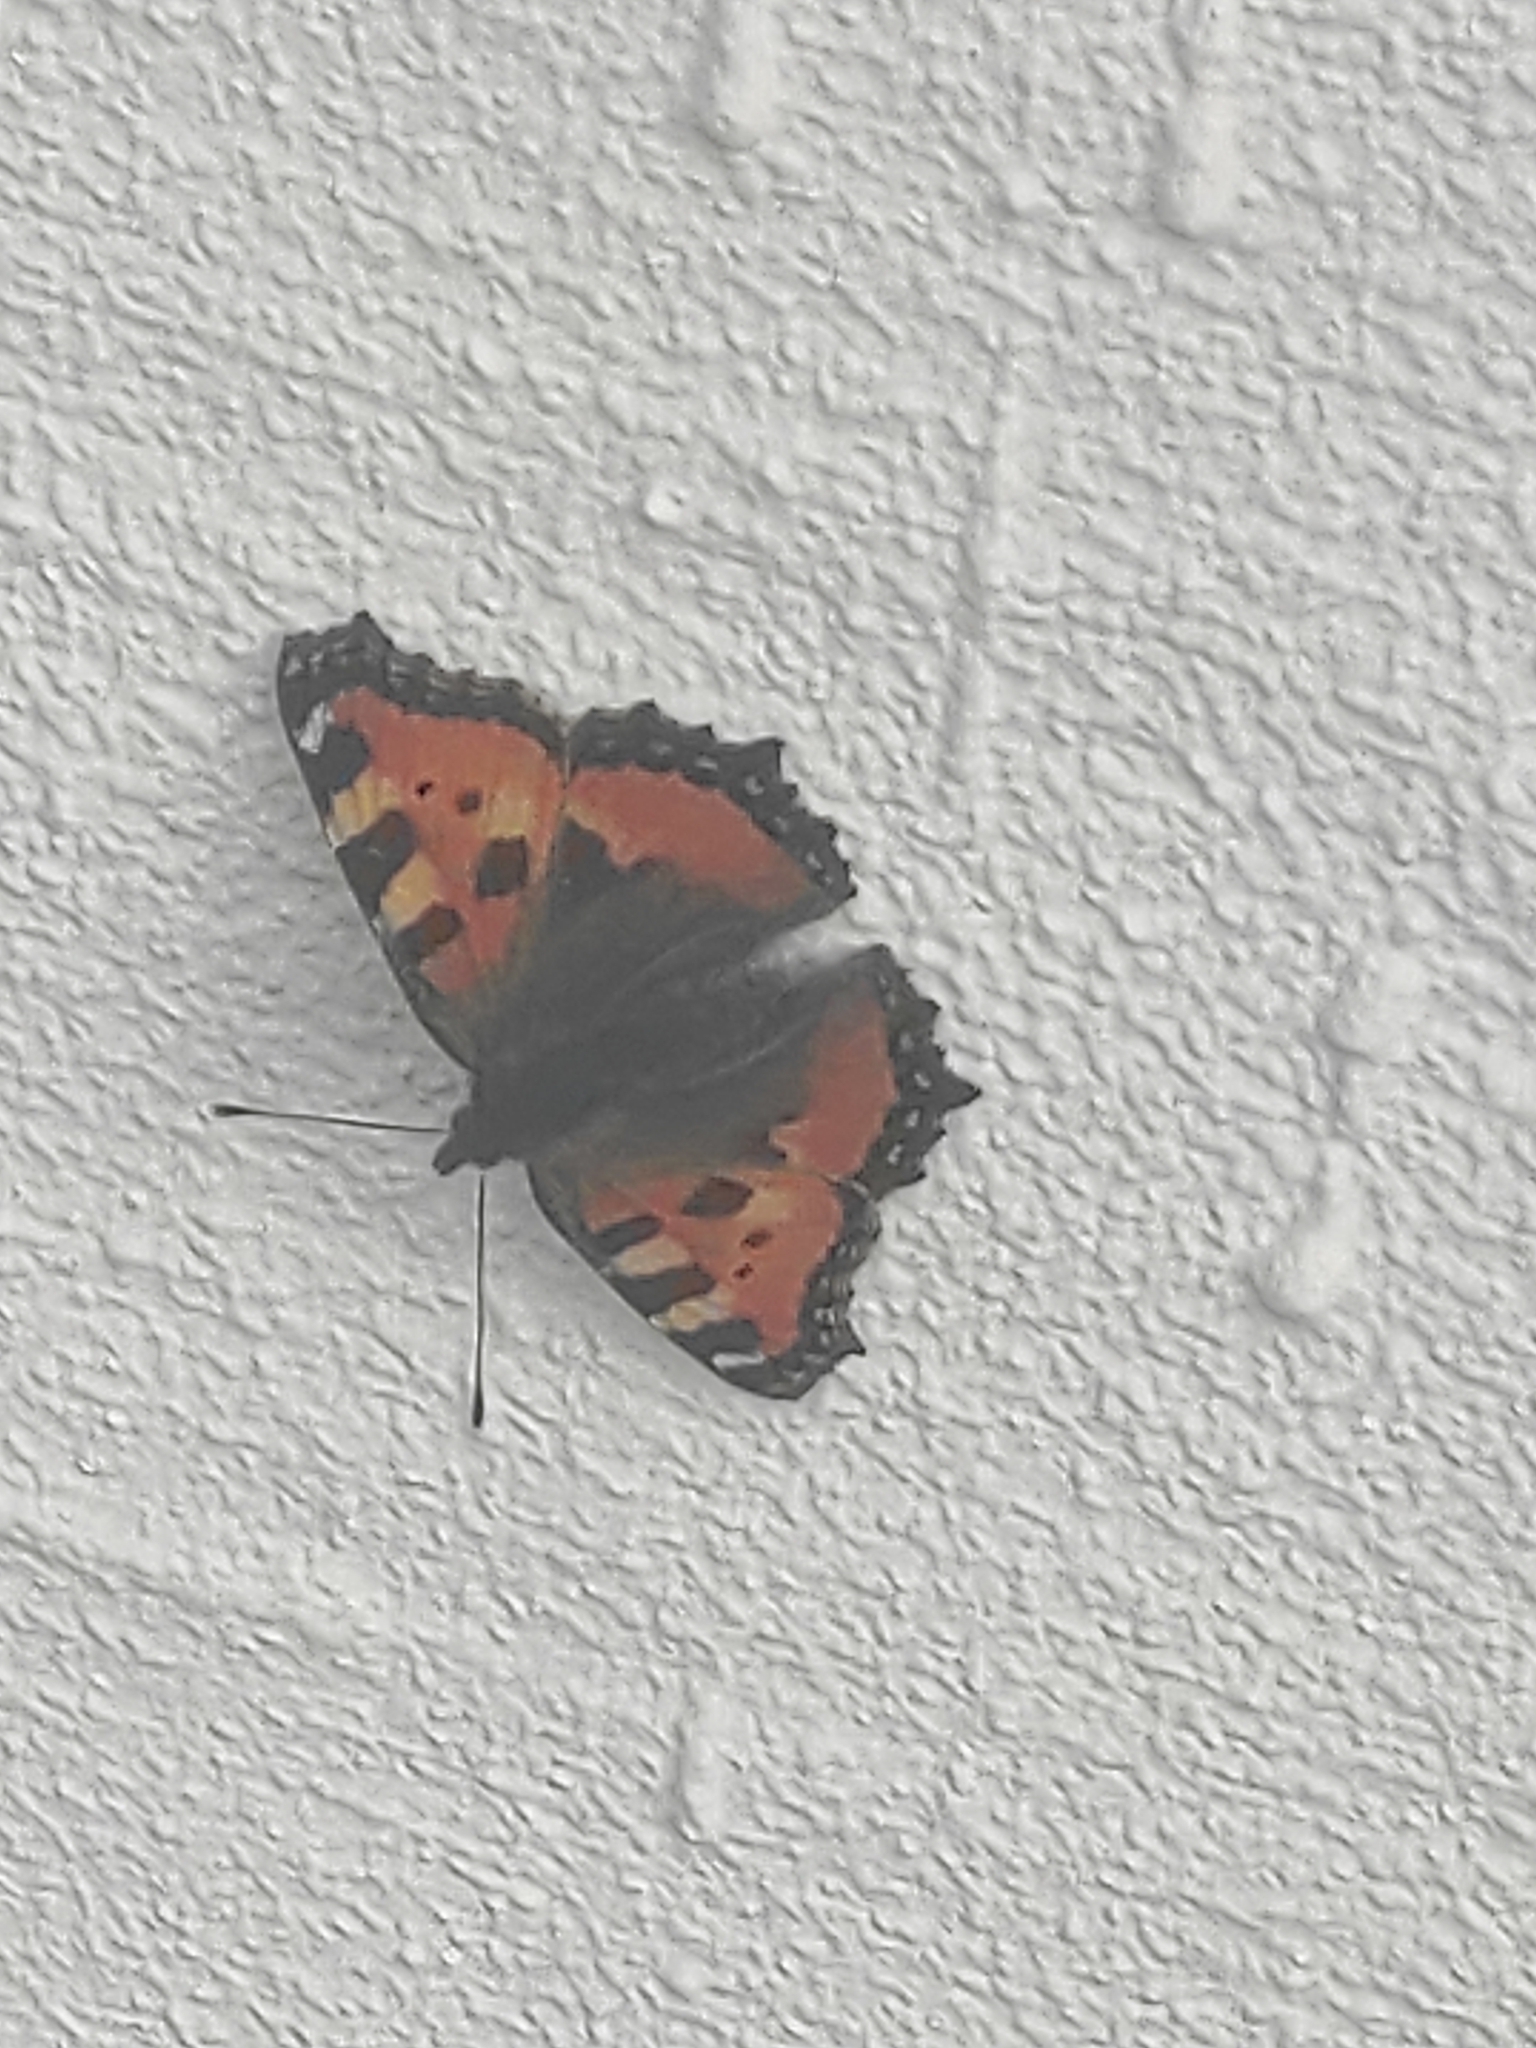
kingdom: Animalia
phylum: Arthropoda
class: Insecta
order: Lepidoptera
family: Nymphalidae
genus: Aglais
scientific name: Aglais urticae
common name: Small tortoiseshell
